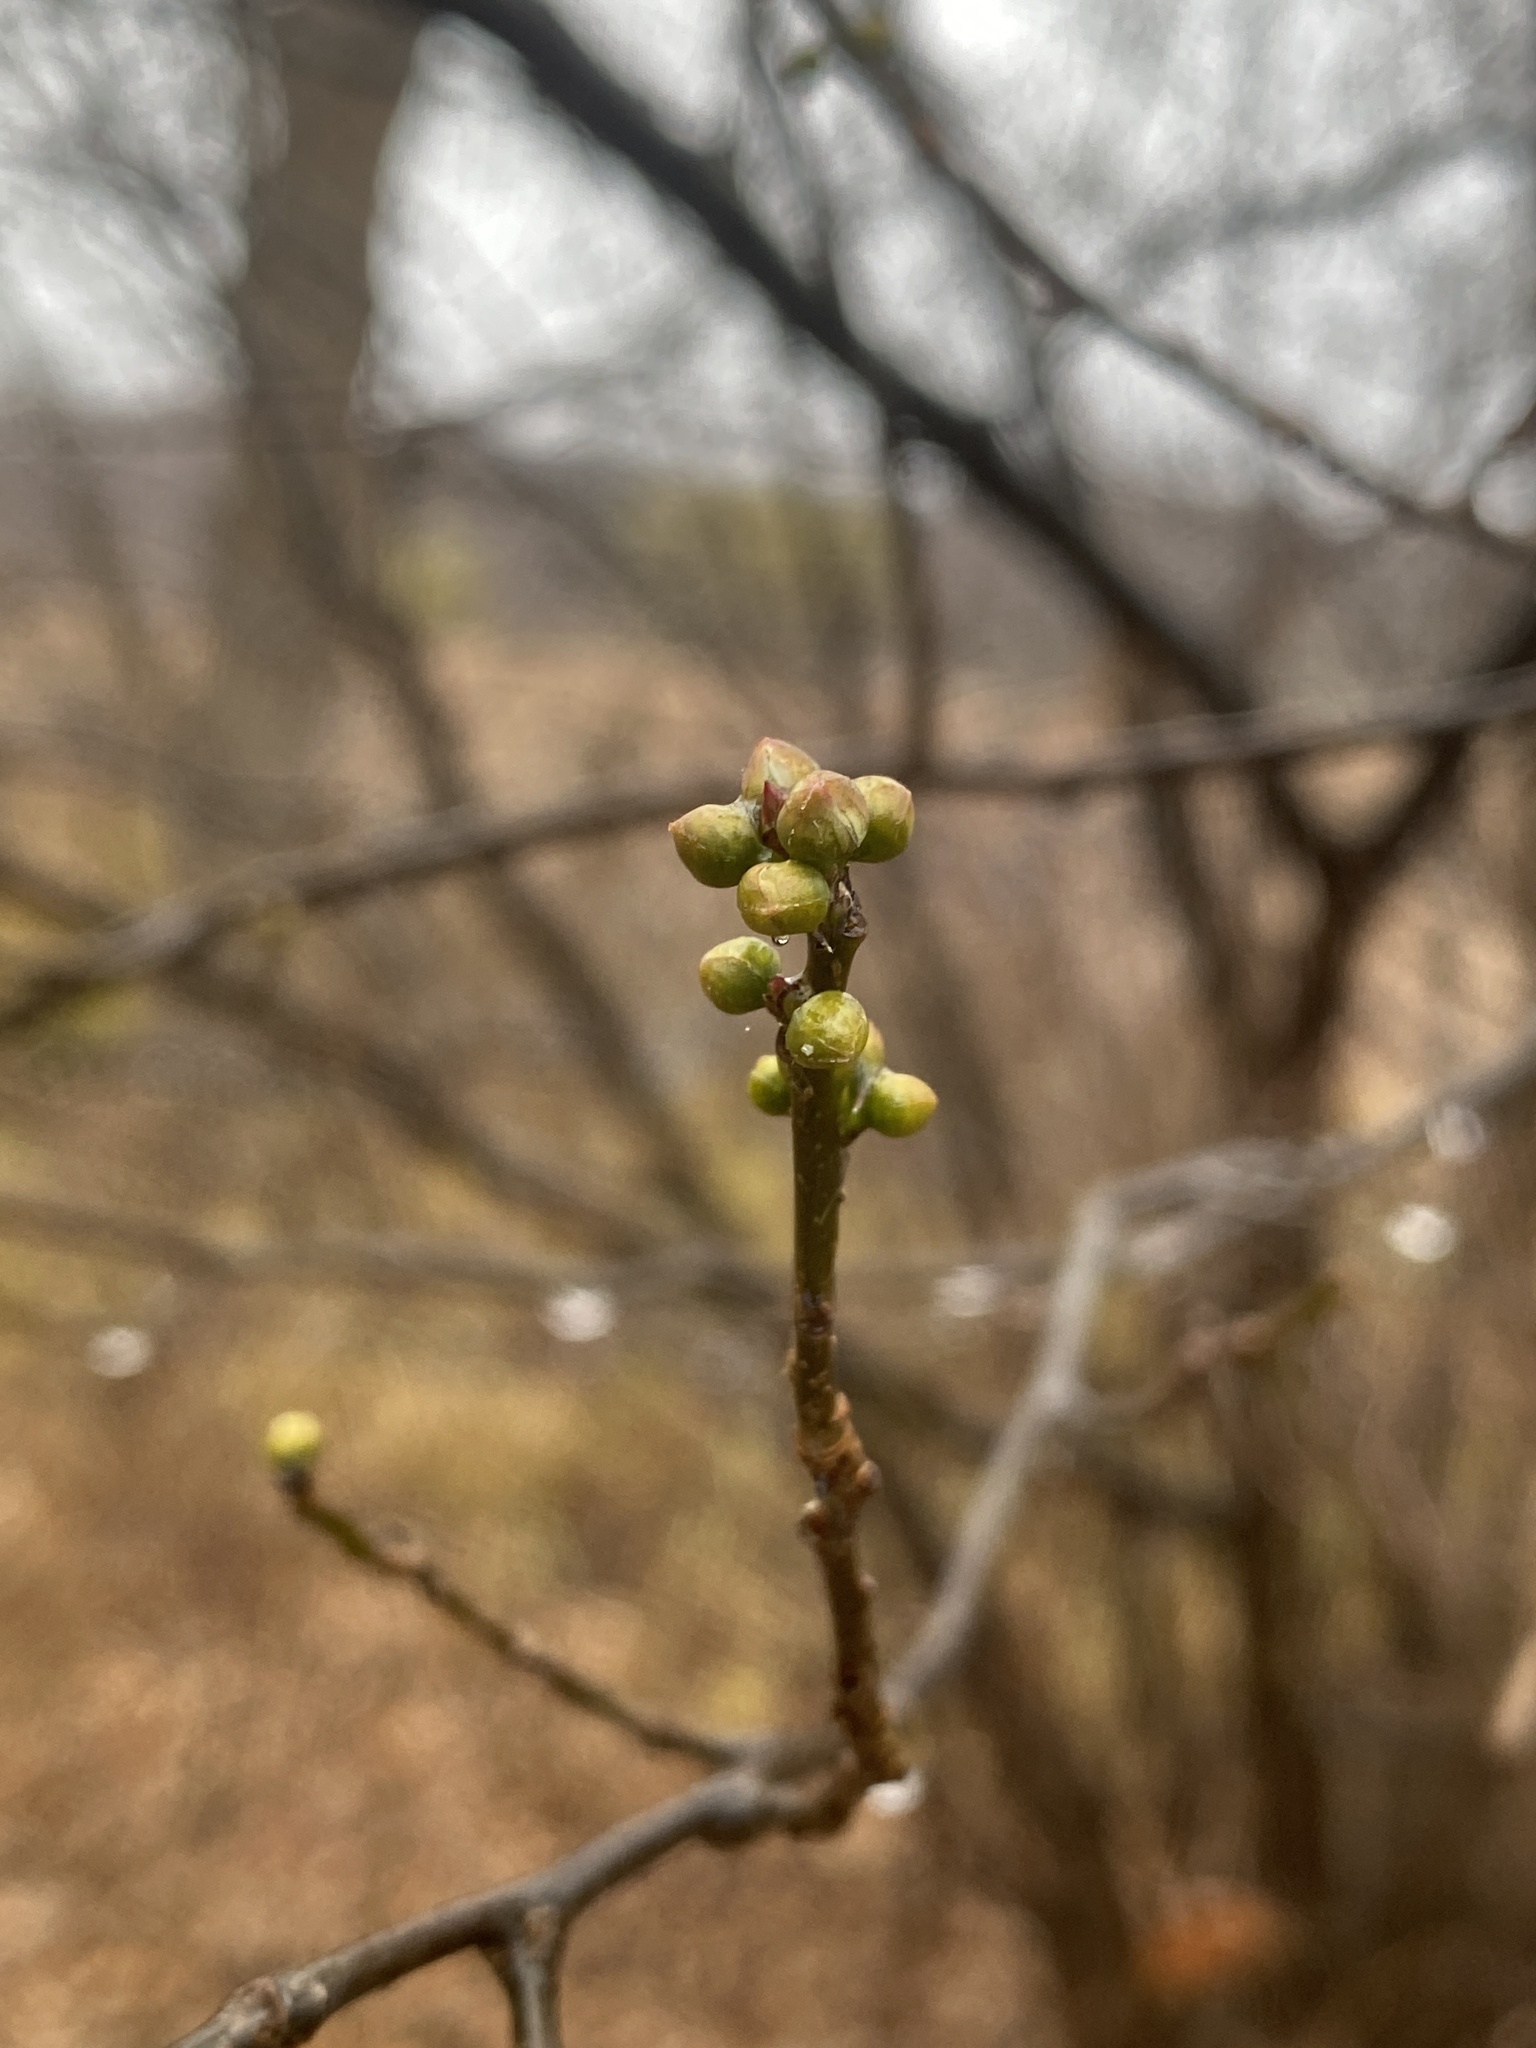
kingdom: Plantae
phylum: Tracheophyta
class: Magnoliopsida
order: Laurales
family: Lauraceae
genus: Lindera
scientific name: Lindera benzoin
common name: Spicebush
